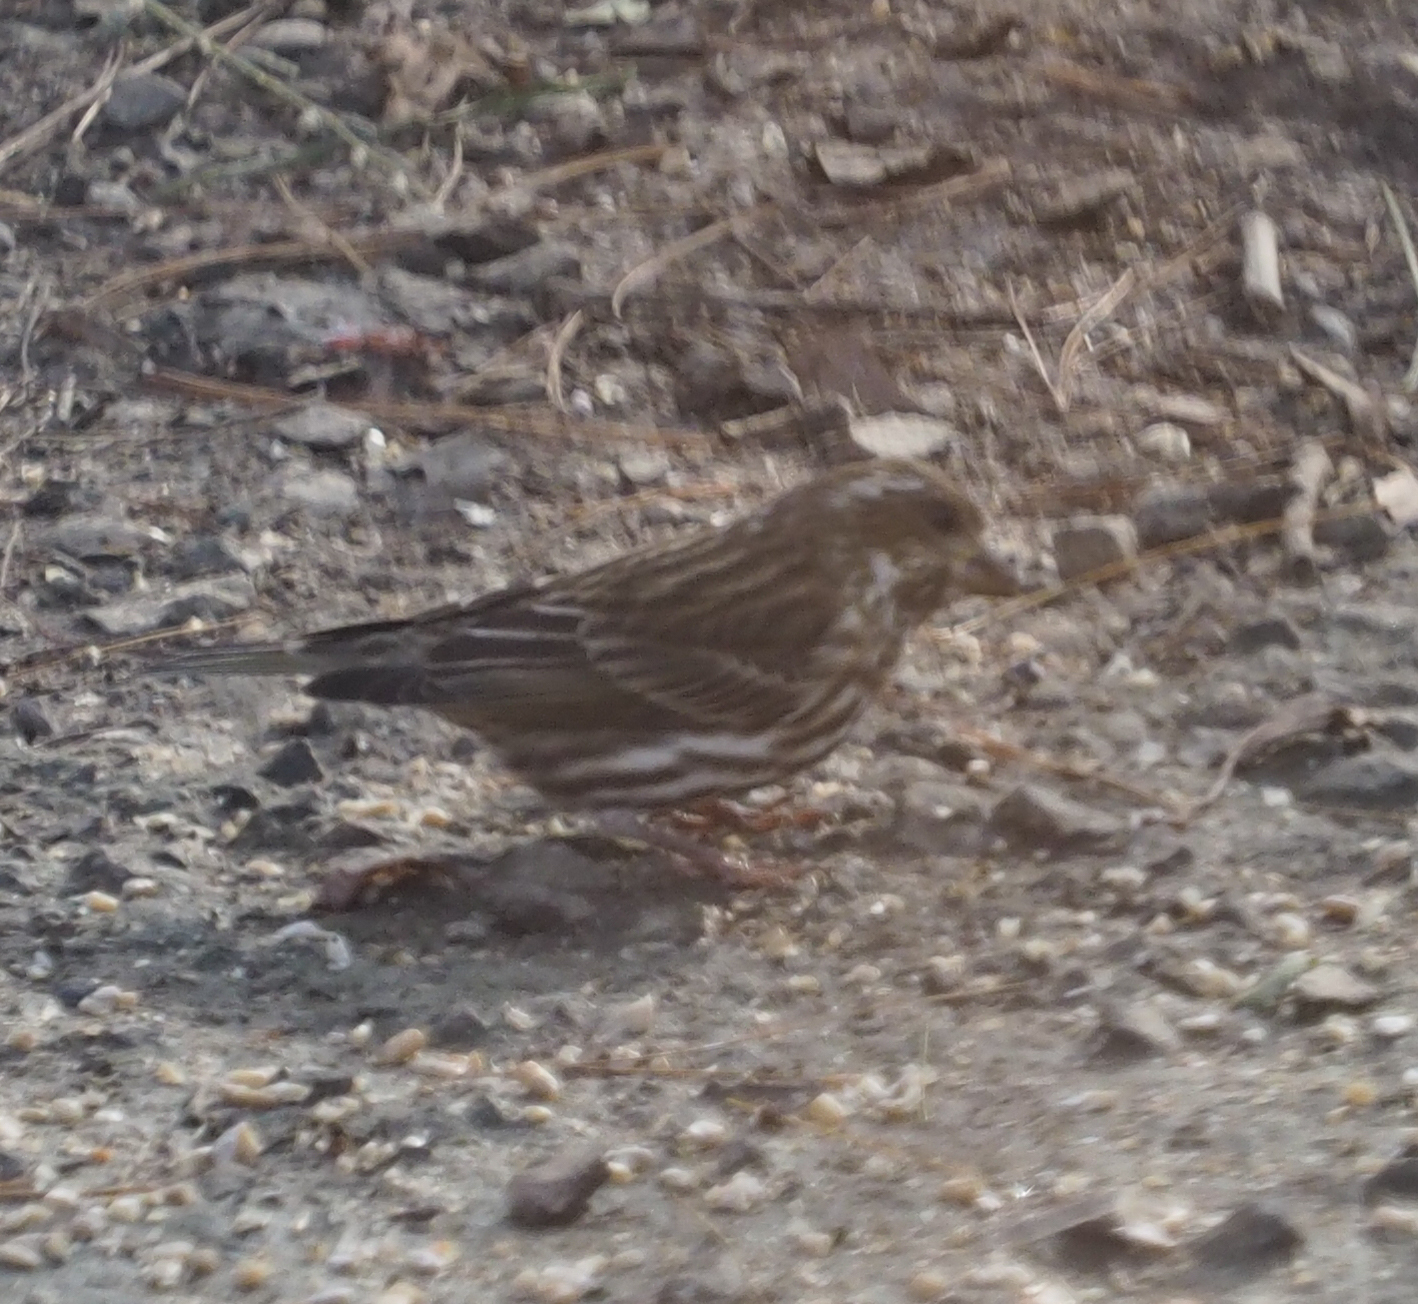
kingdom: Animalia
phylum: Chordata
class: Aves
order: Passeriformes
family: Fringillidae
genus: Haemorhous
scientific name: Haemorhous purpureus
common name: Purple finch
